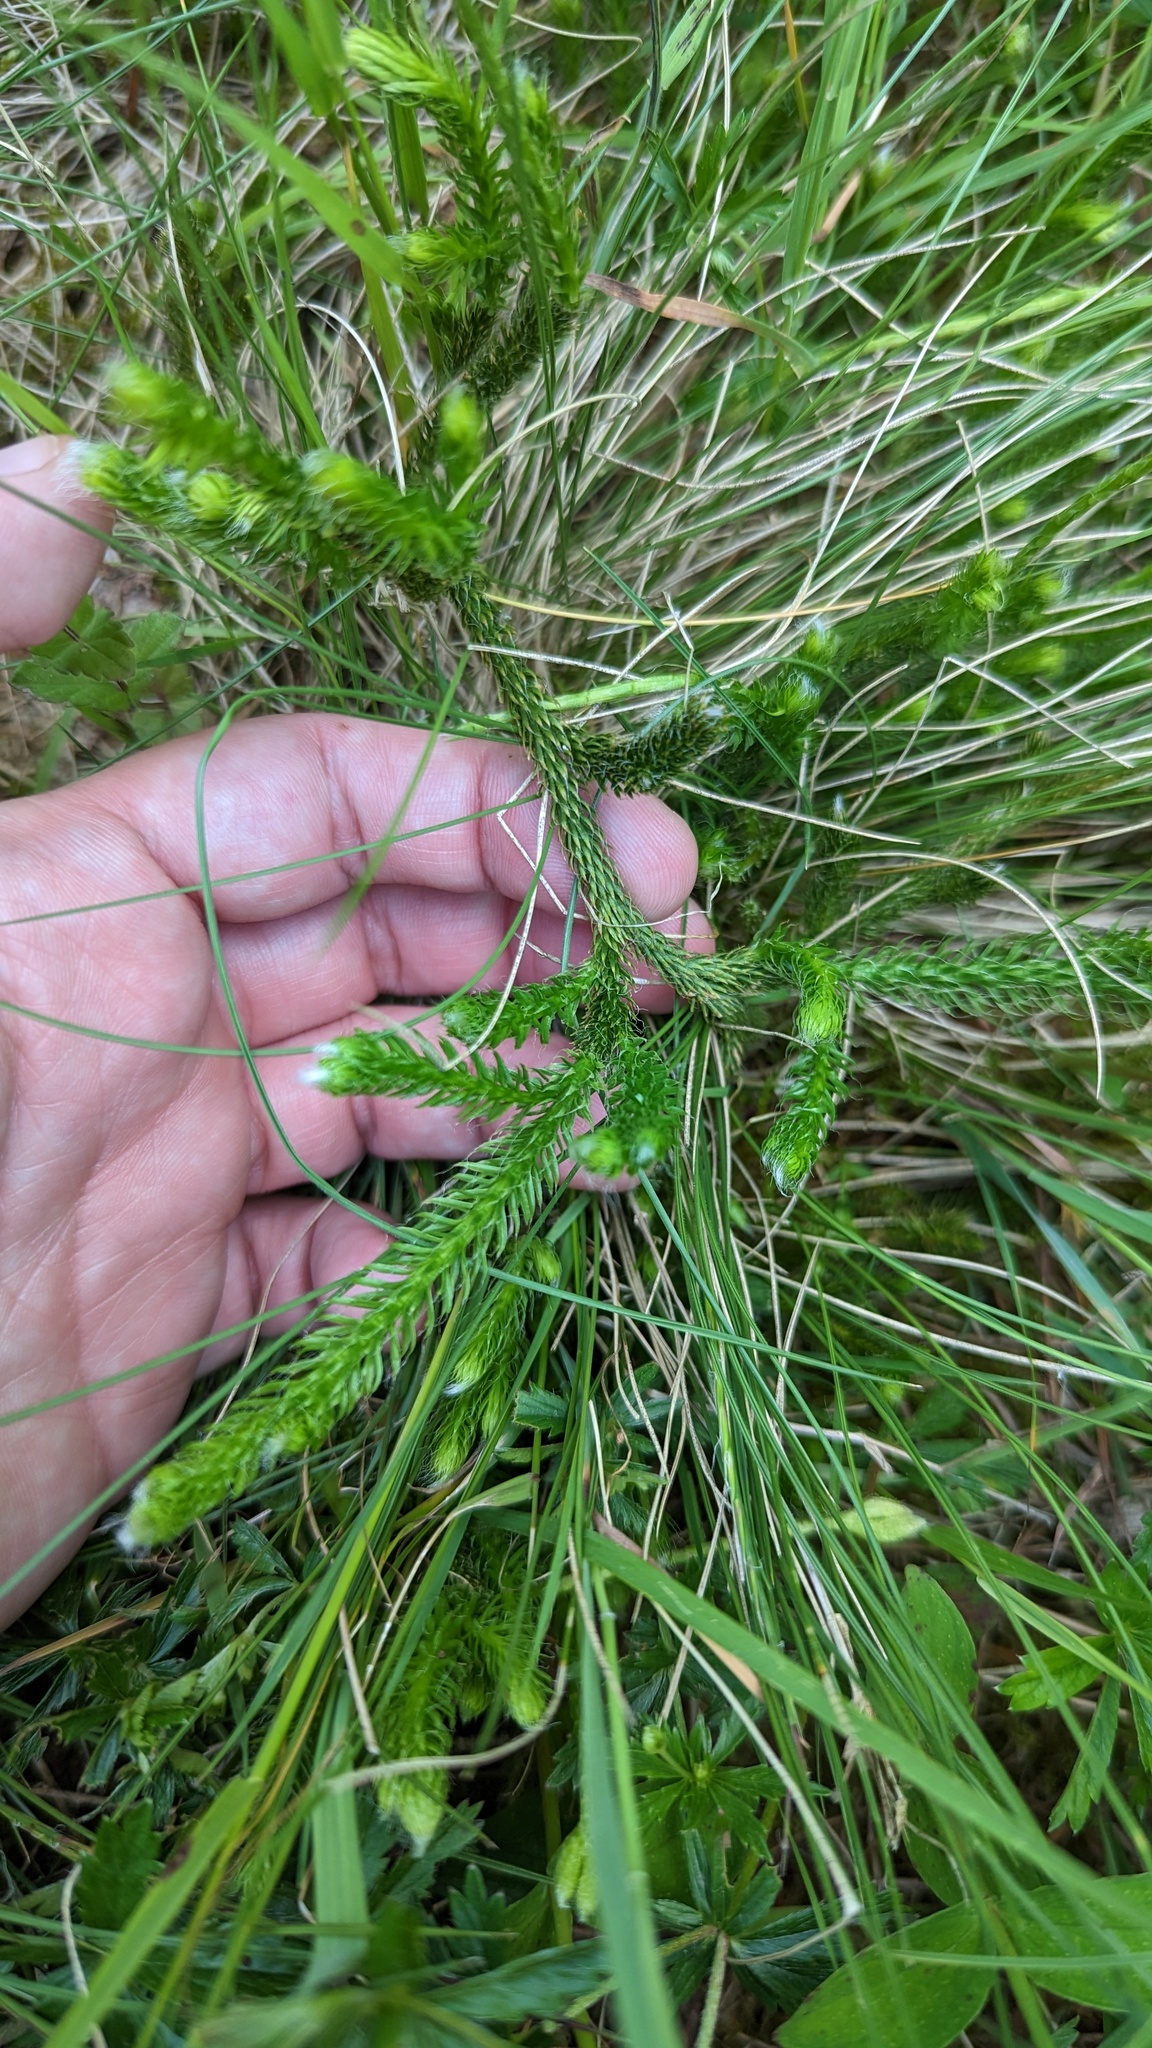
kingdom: Plantae
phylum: Tracheophyta
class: Lycopodiopsida
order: Lycopodiales
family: Lycopodiaceae
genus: Lycopodium
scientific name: Lycopodium clavatum
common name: Stag's-horn clubmoss
